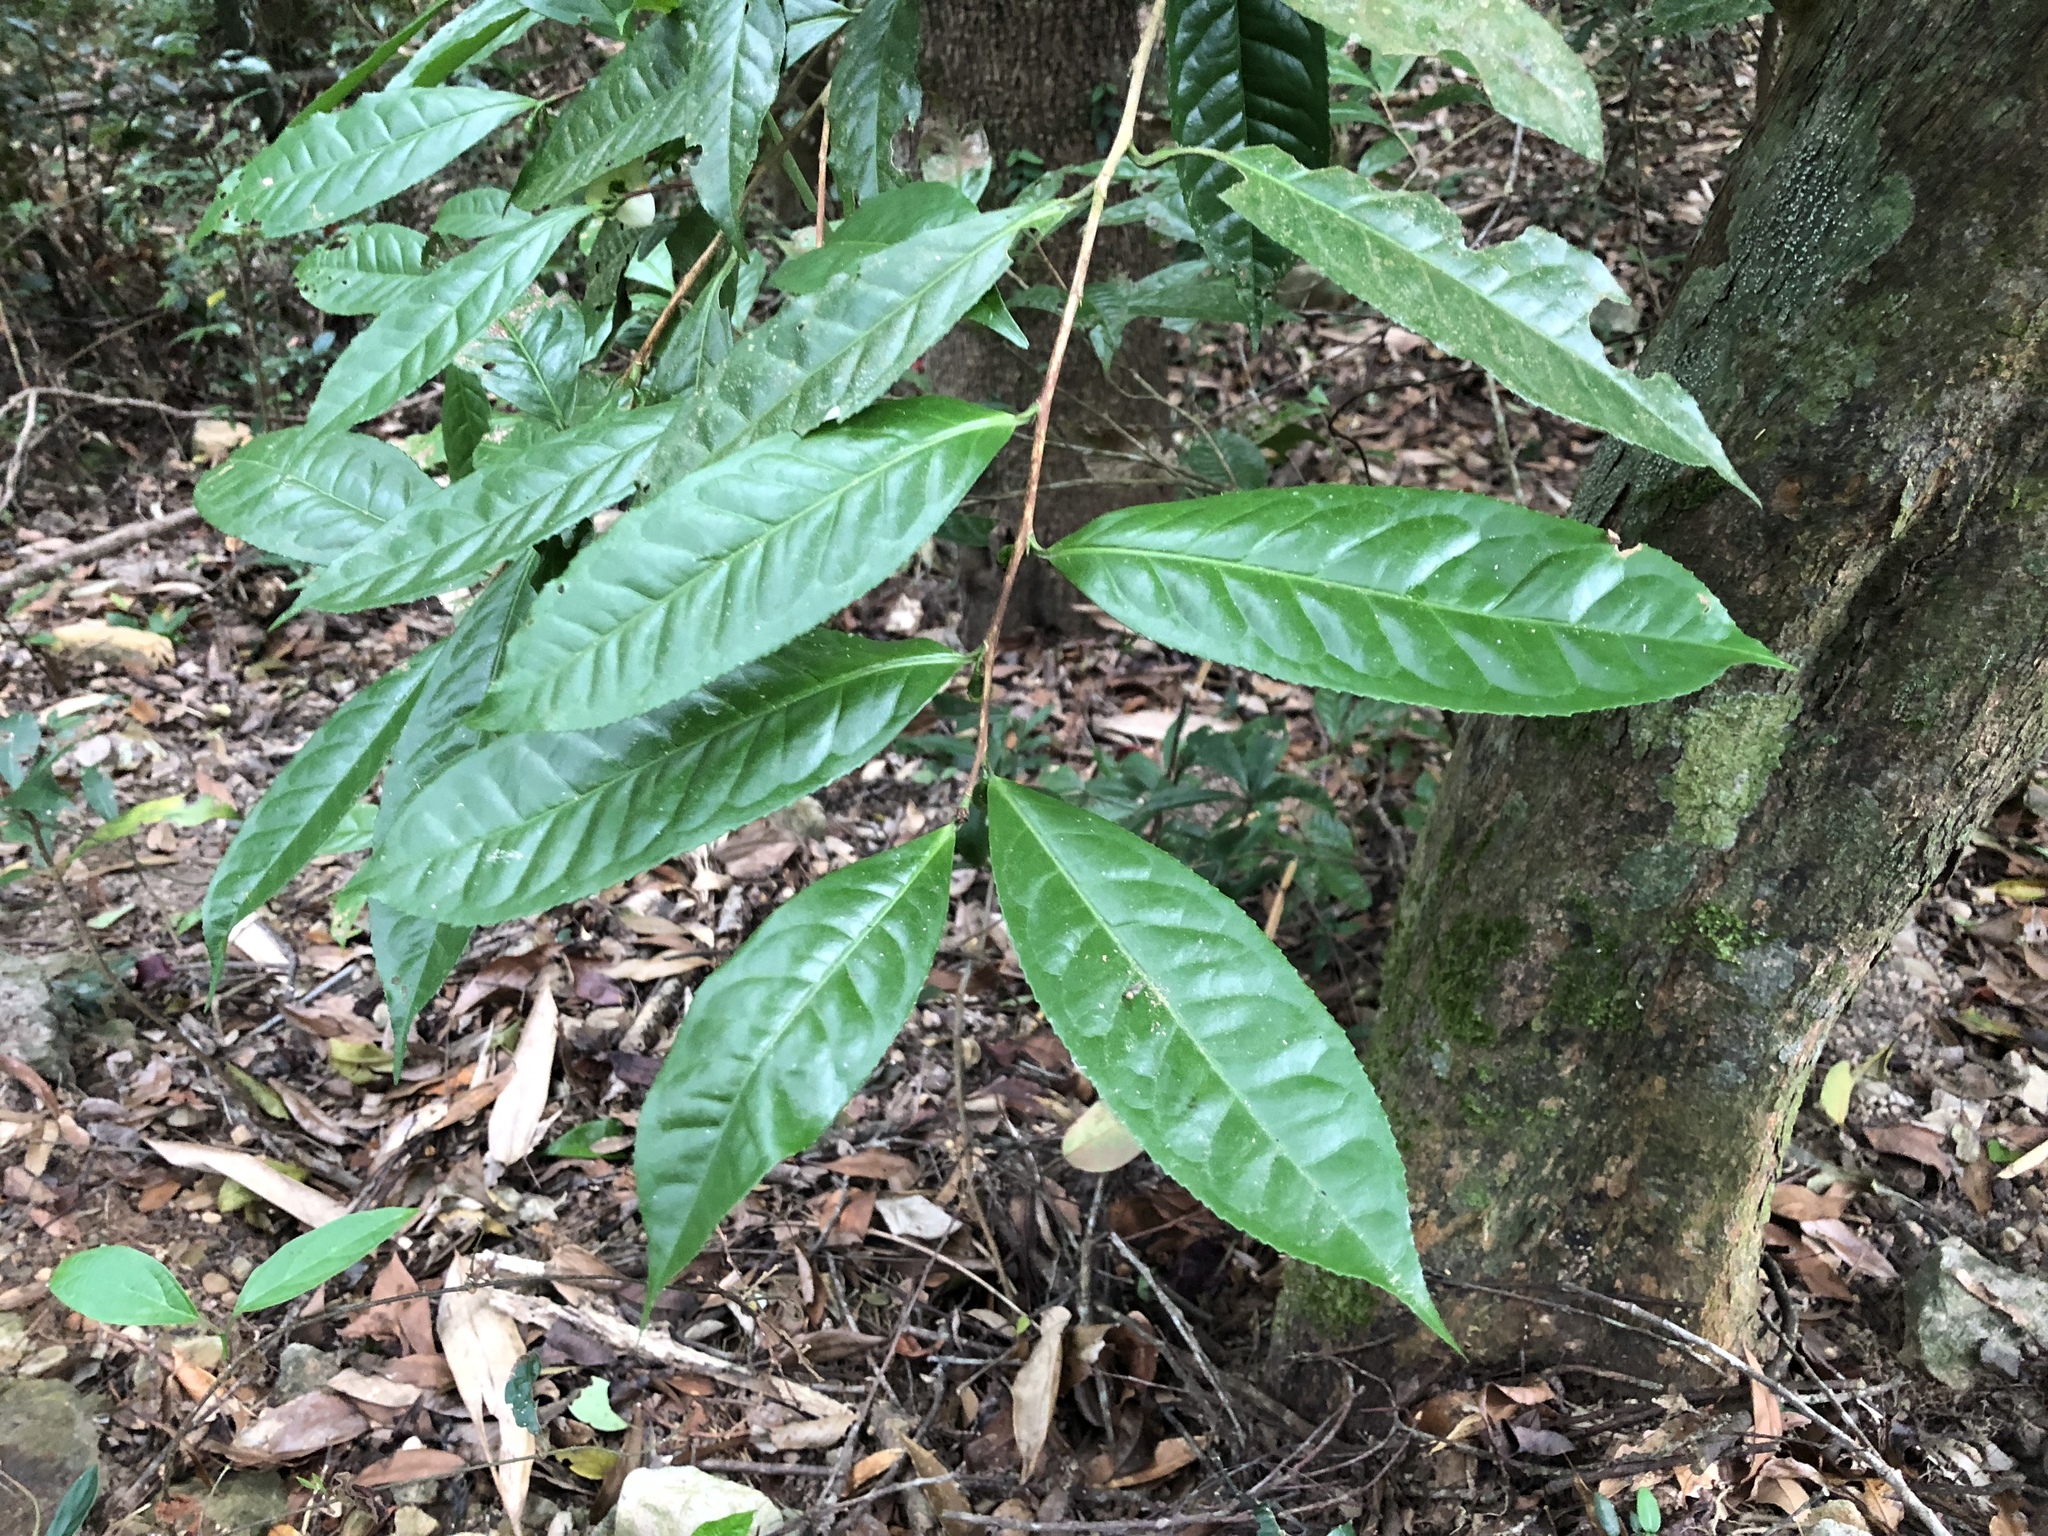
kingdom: Plantae
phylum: Tracheophyta
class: Magnoliopsida
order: Ericales
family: Theaceae
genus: Camellia
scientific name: Camellia furfuracea
